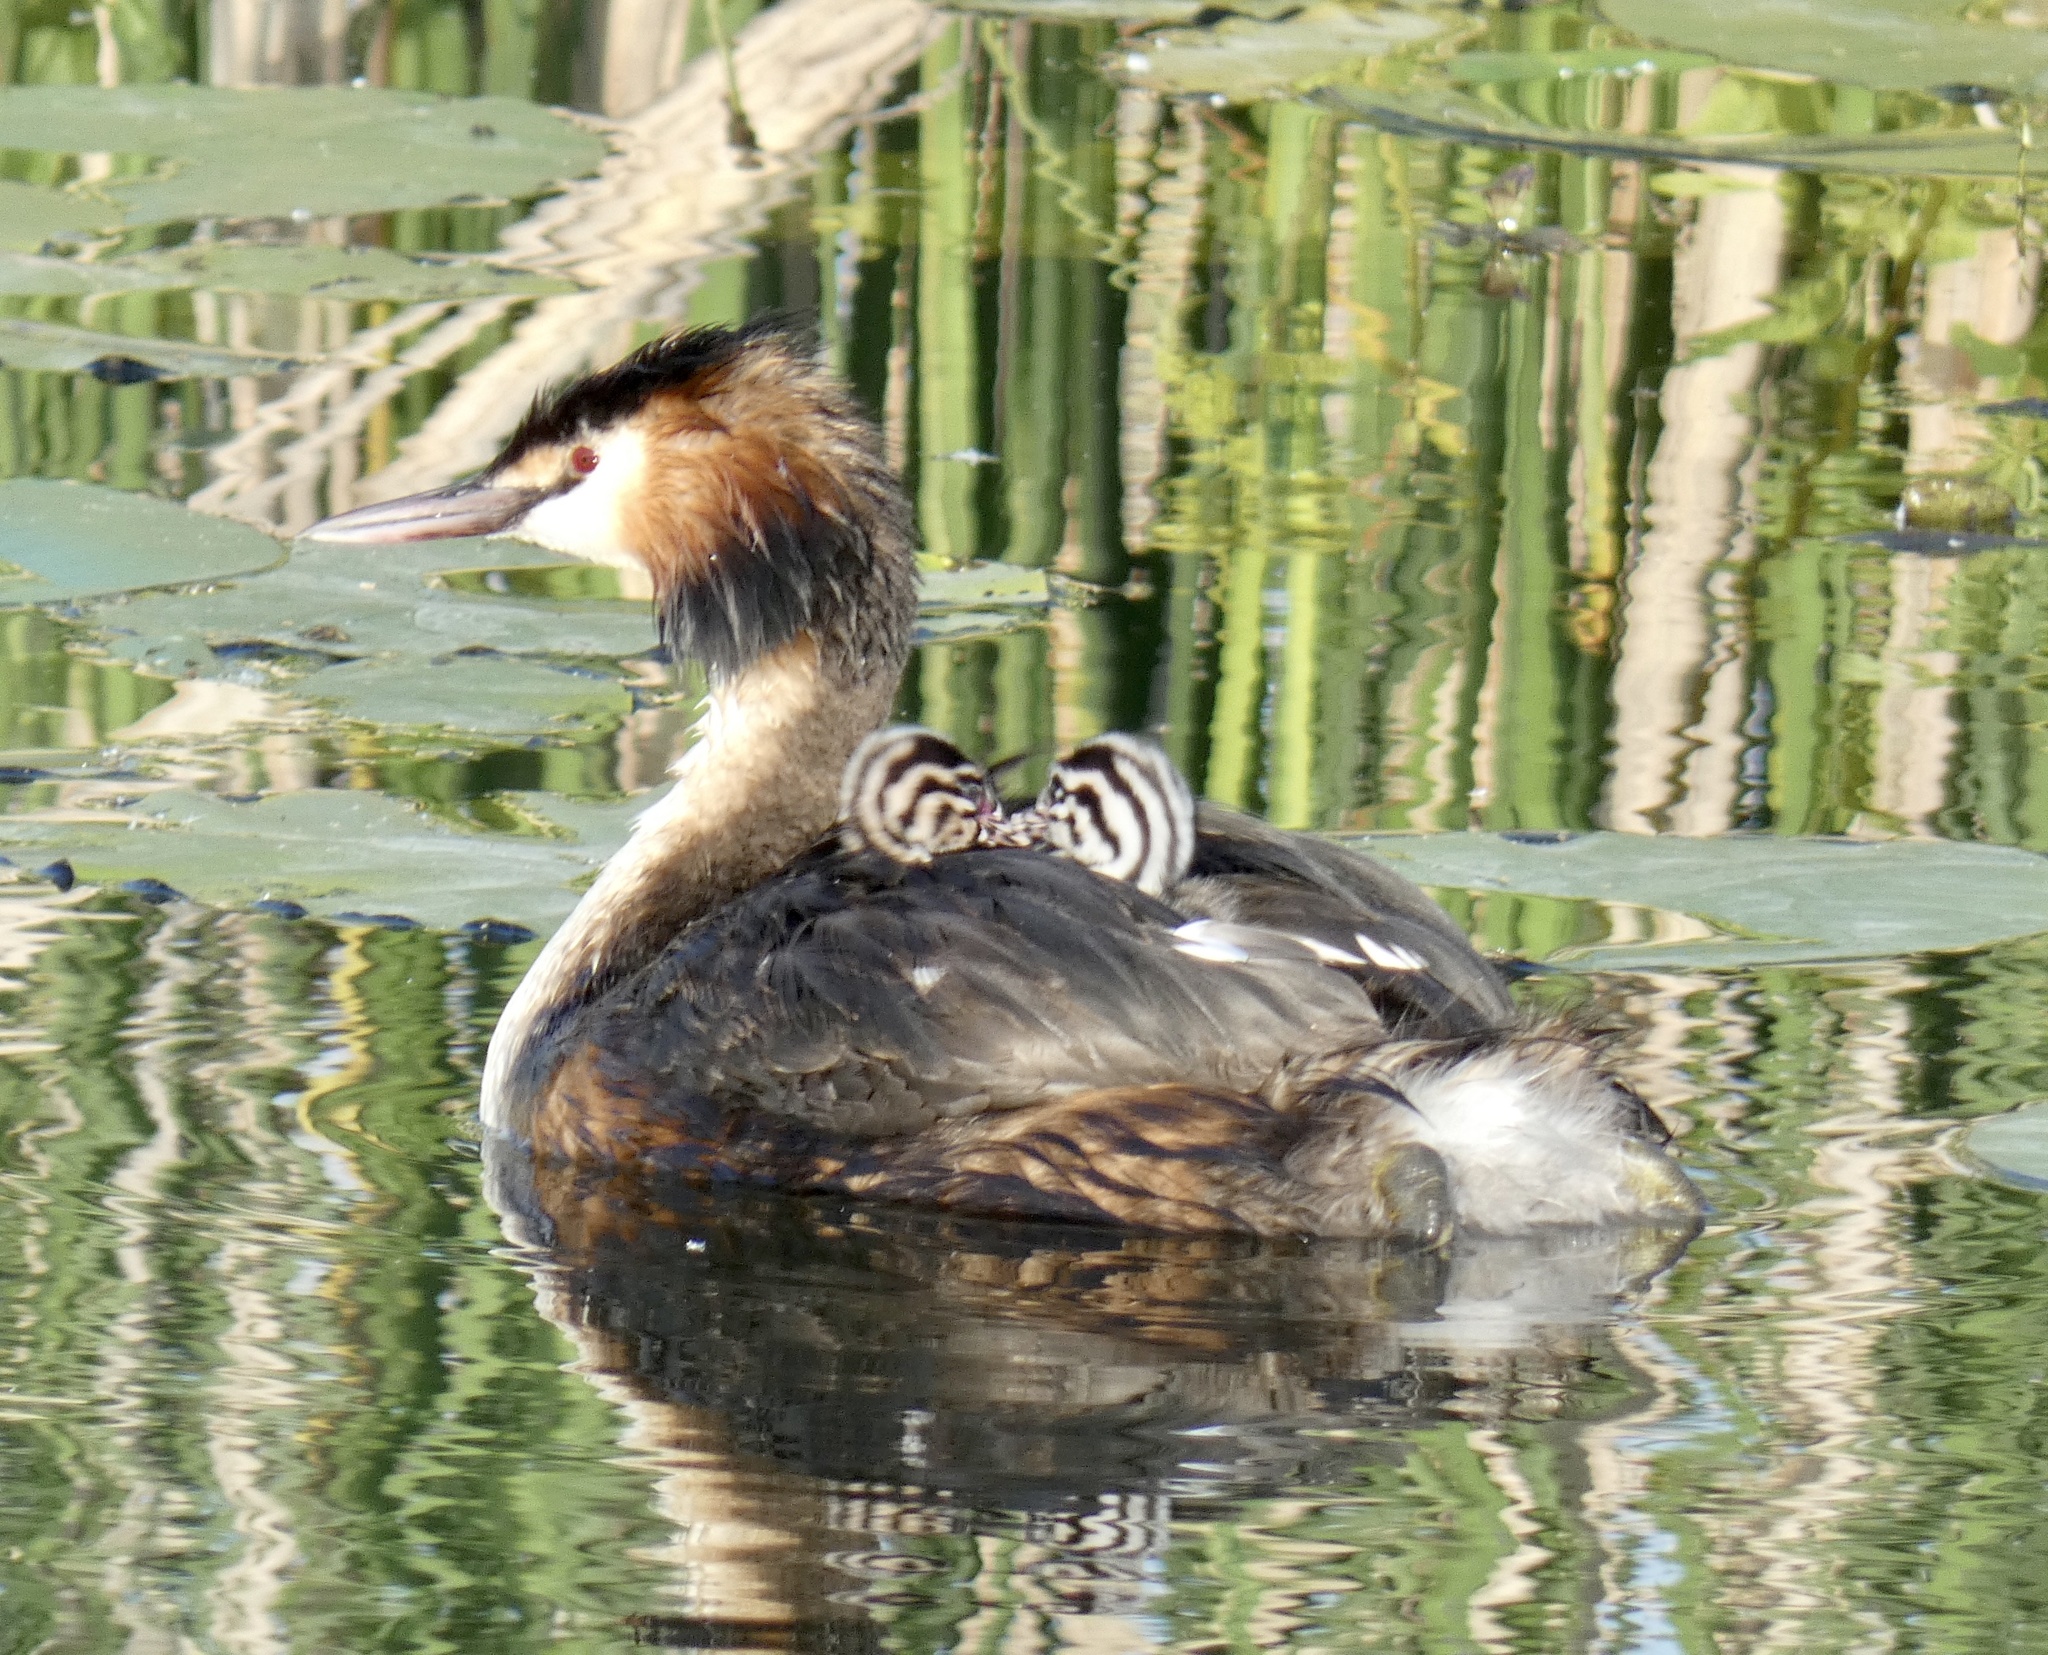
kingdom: Animalia
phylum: Chordata
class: Aves
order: Podicipediformes
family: Podicipedidae
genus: Podiceps
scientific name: Podiceps cristatus
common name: Great crested grebe
